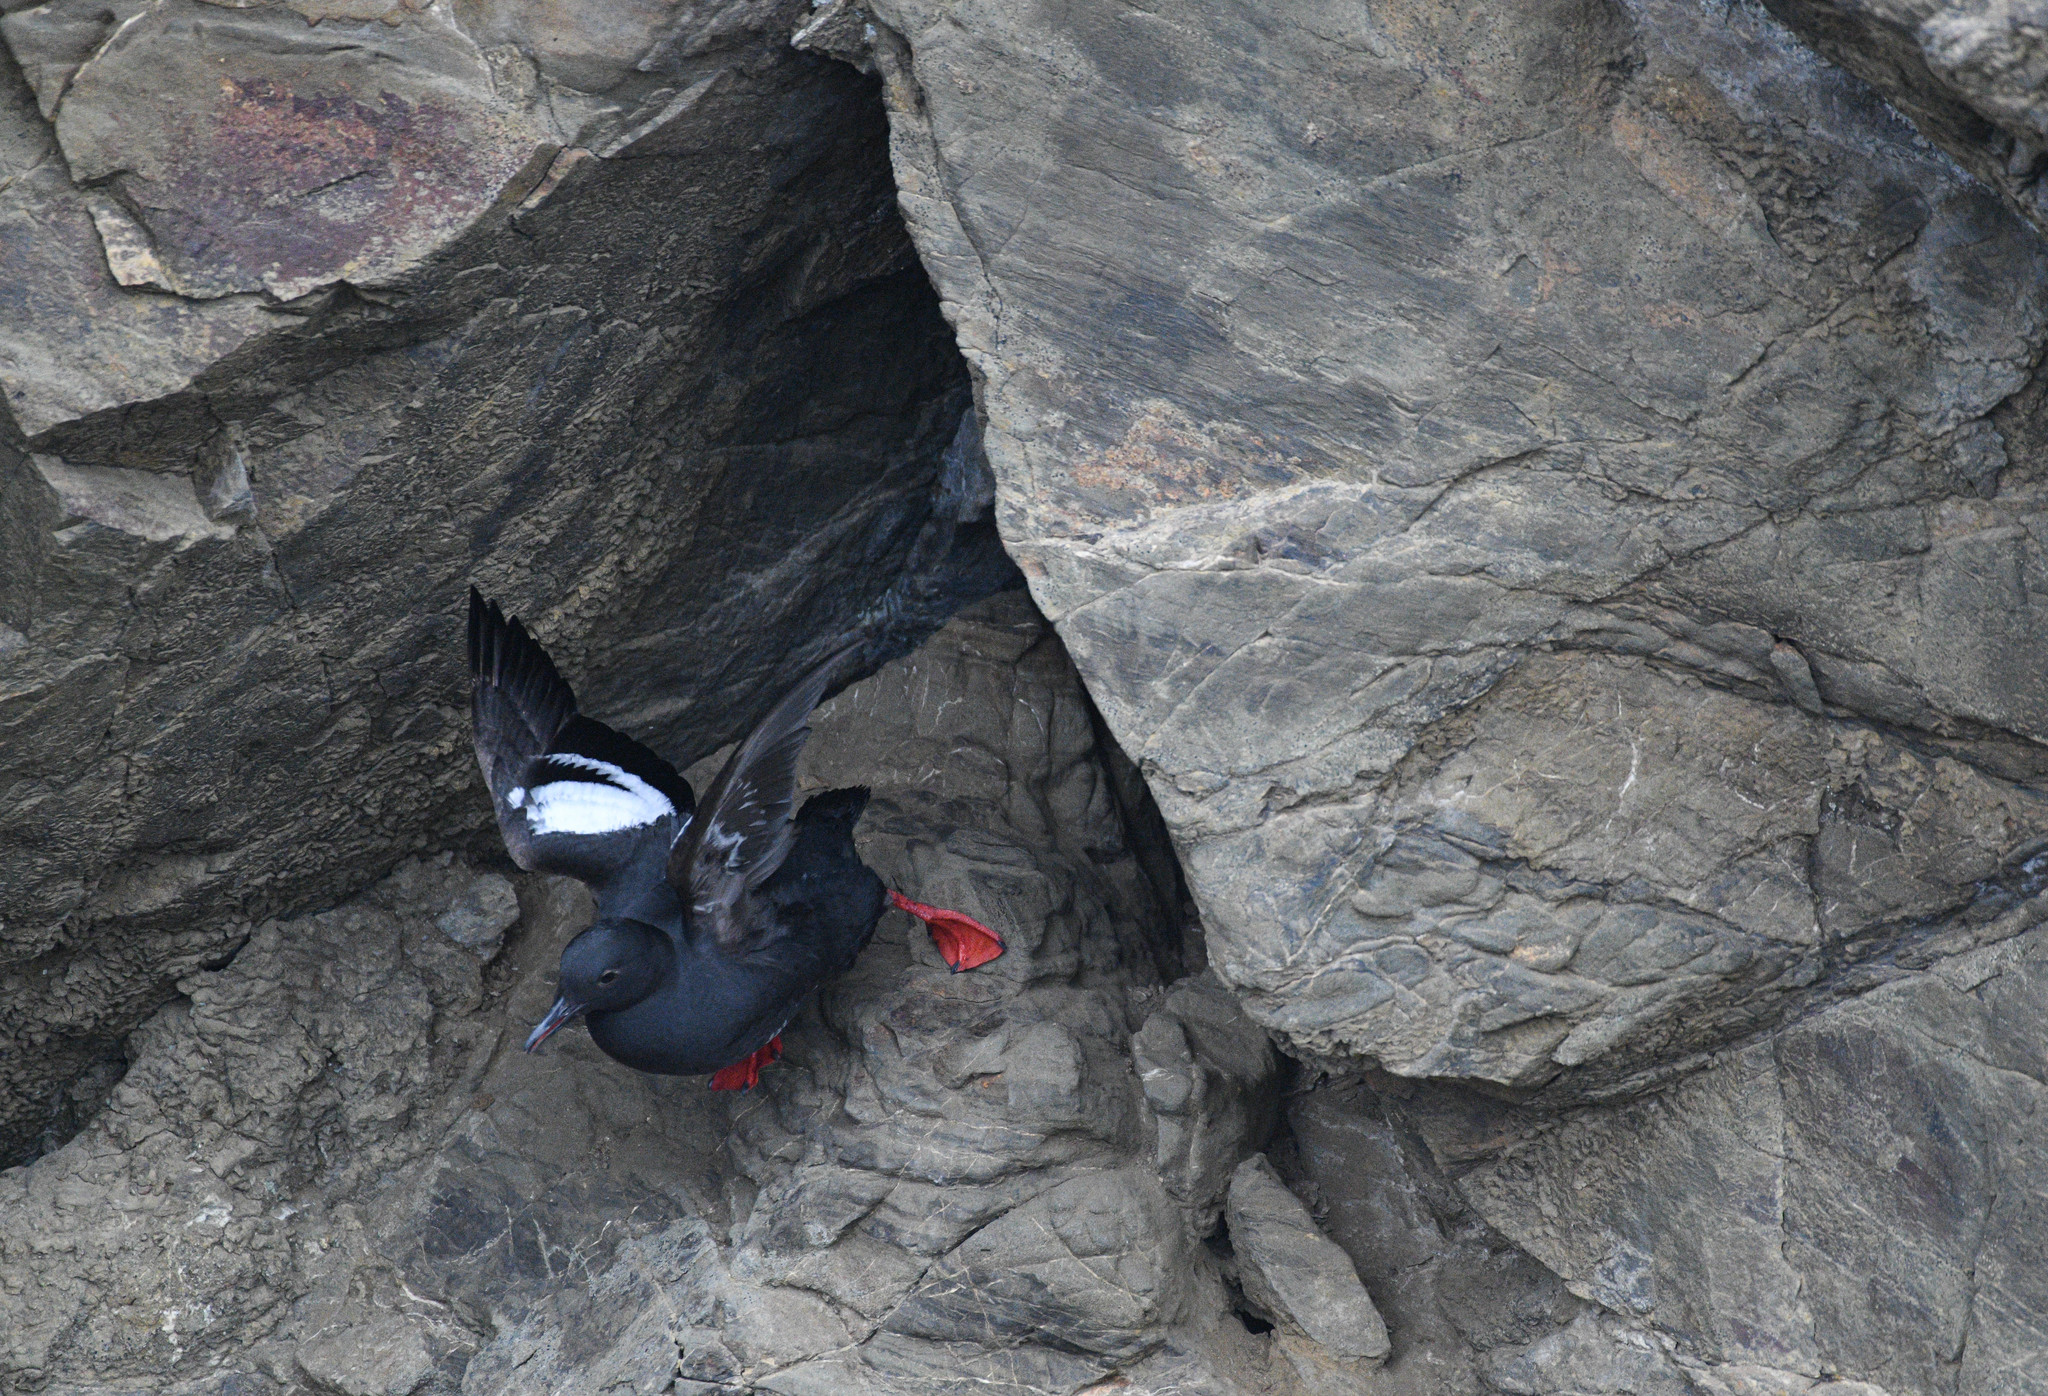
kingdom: Animalia
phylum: Chordata
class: Aves
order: Charadriiformes
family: Alcidae
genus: Cepphus
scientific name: Cepphus columba
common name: Pigeon guillemot
